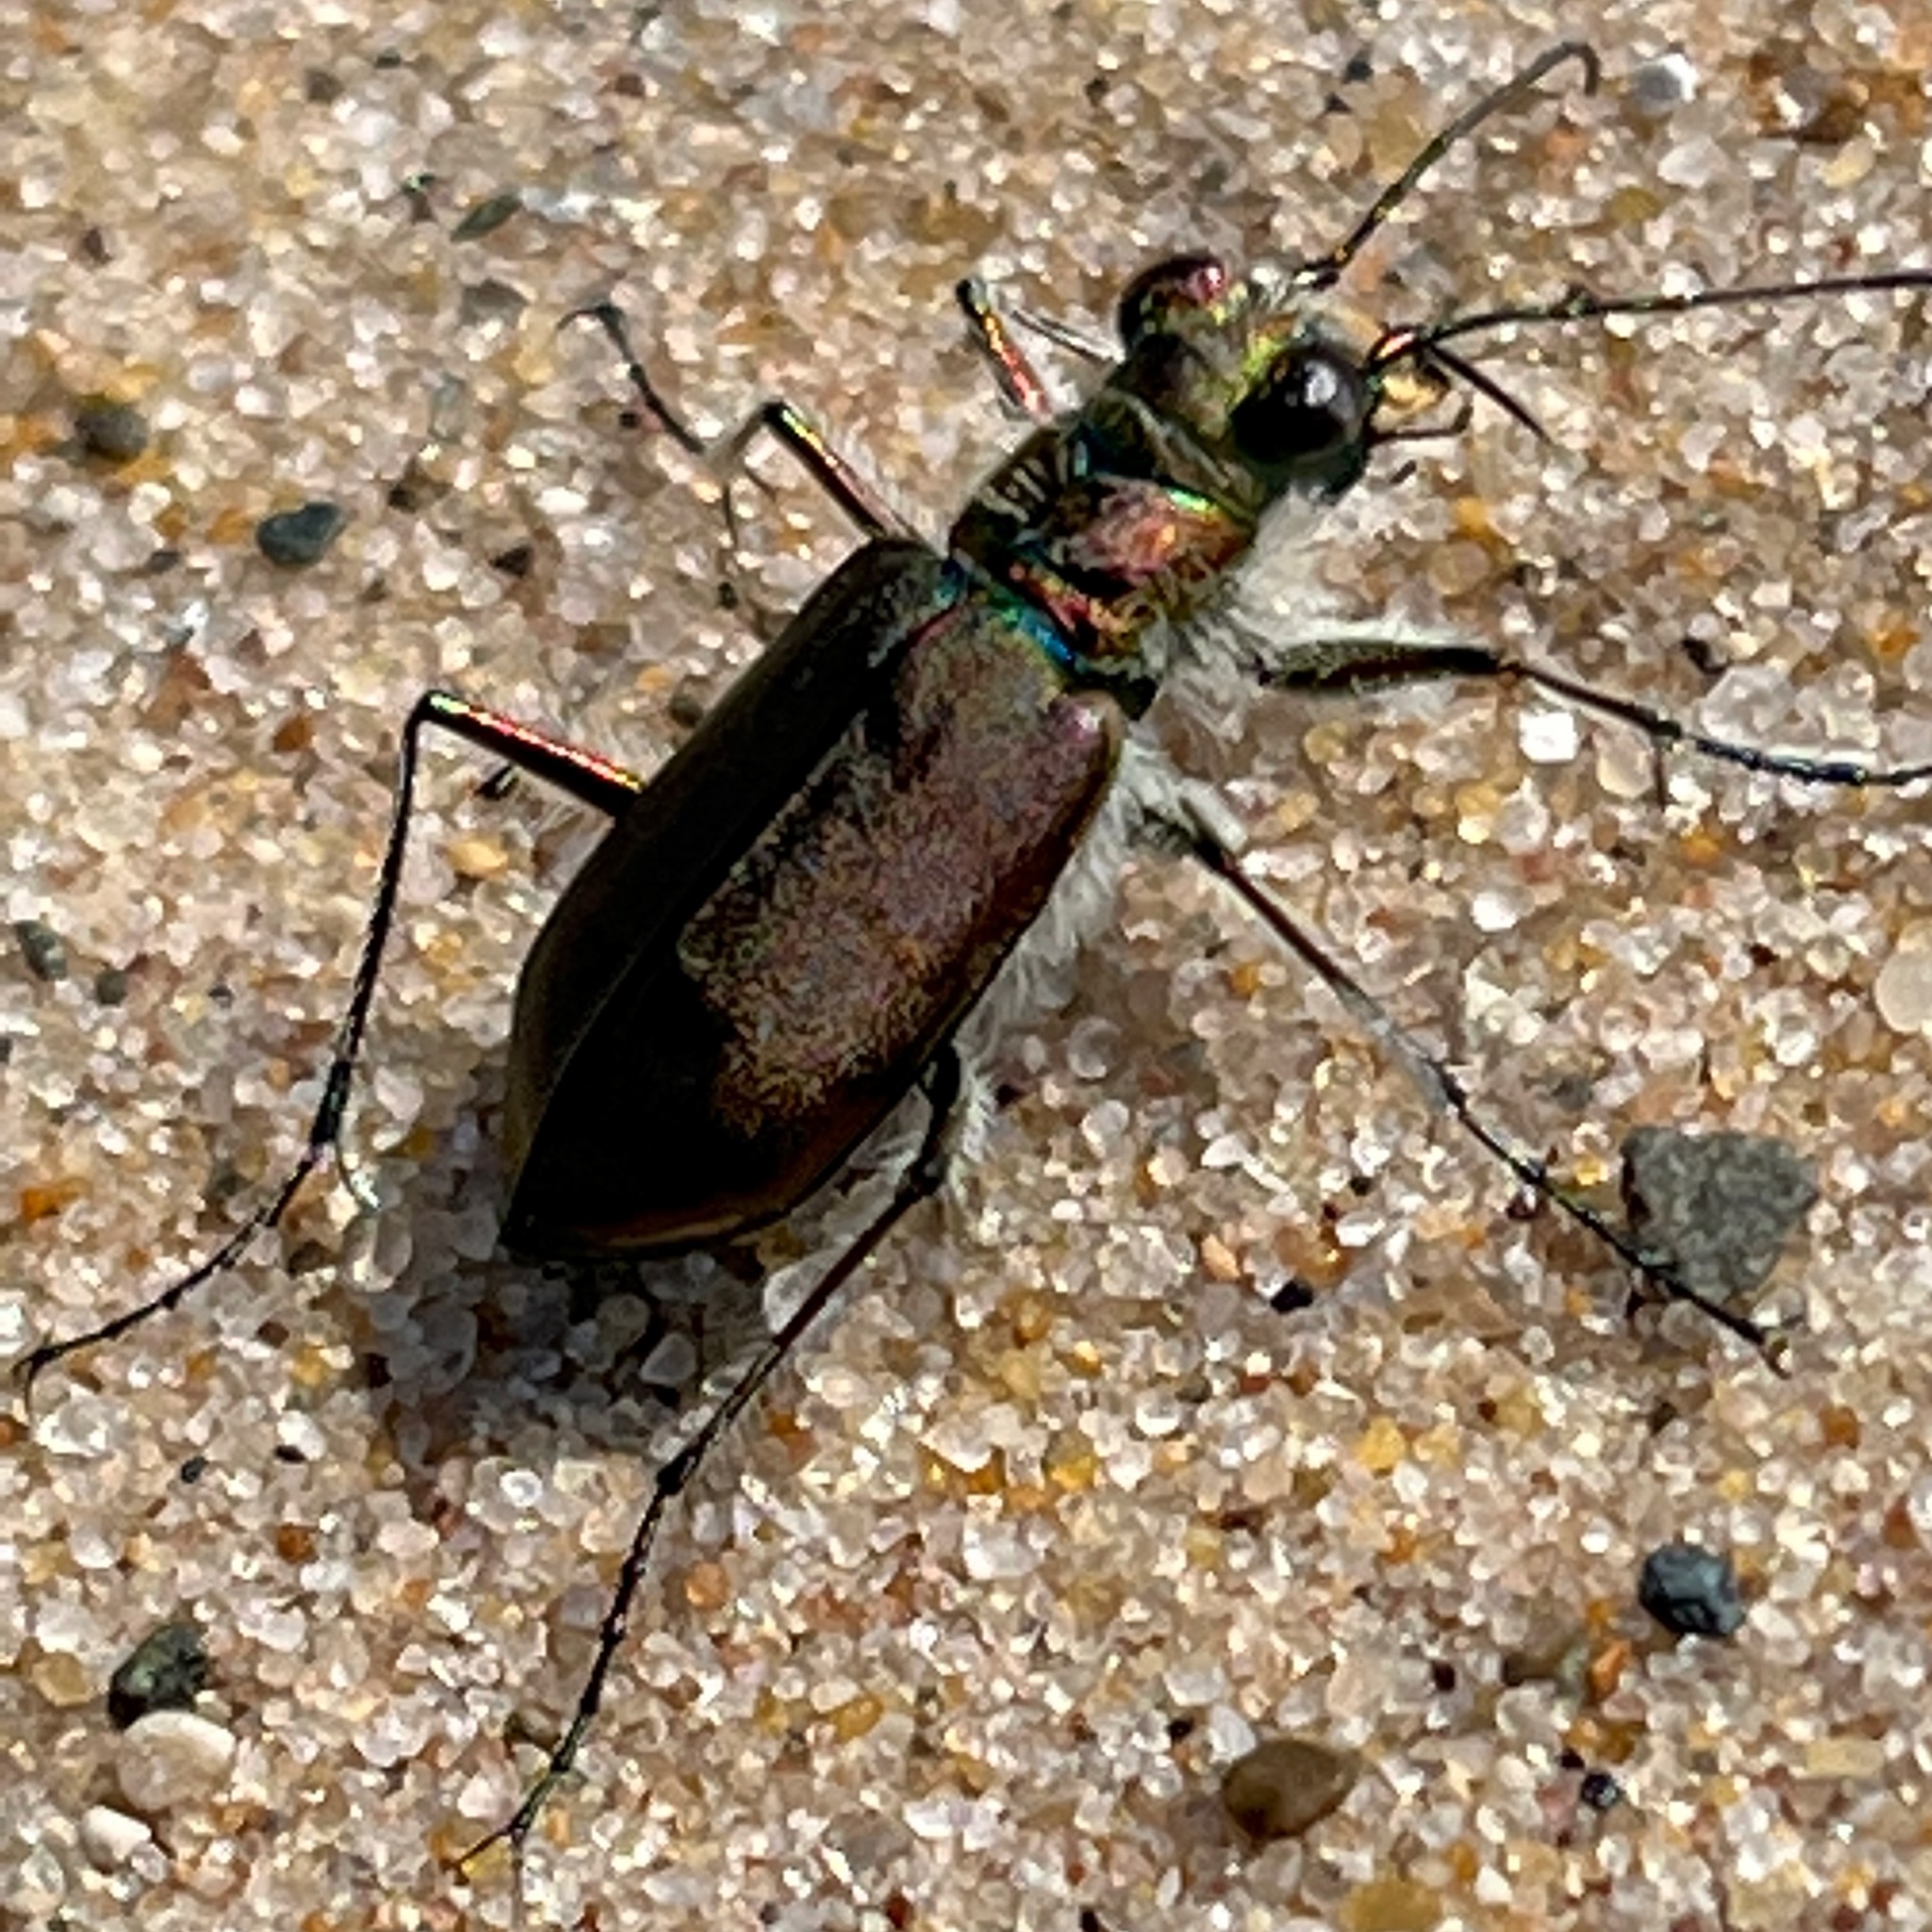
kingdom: Animalia
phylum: Arthropoda
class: Insecta
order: Coleoptera
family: Carabidae
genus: Cicindela
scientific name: Cicindela hirticollis
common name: Hairy-necked tiger beetle
